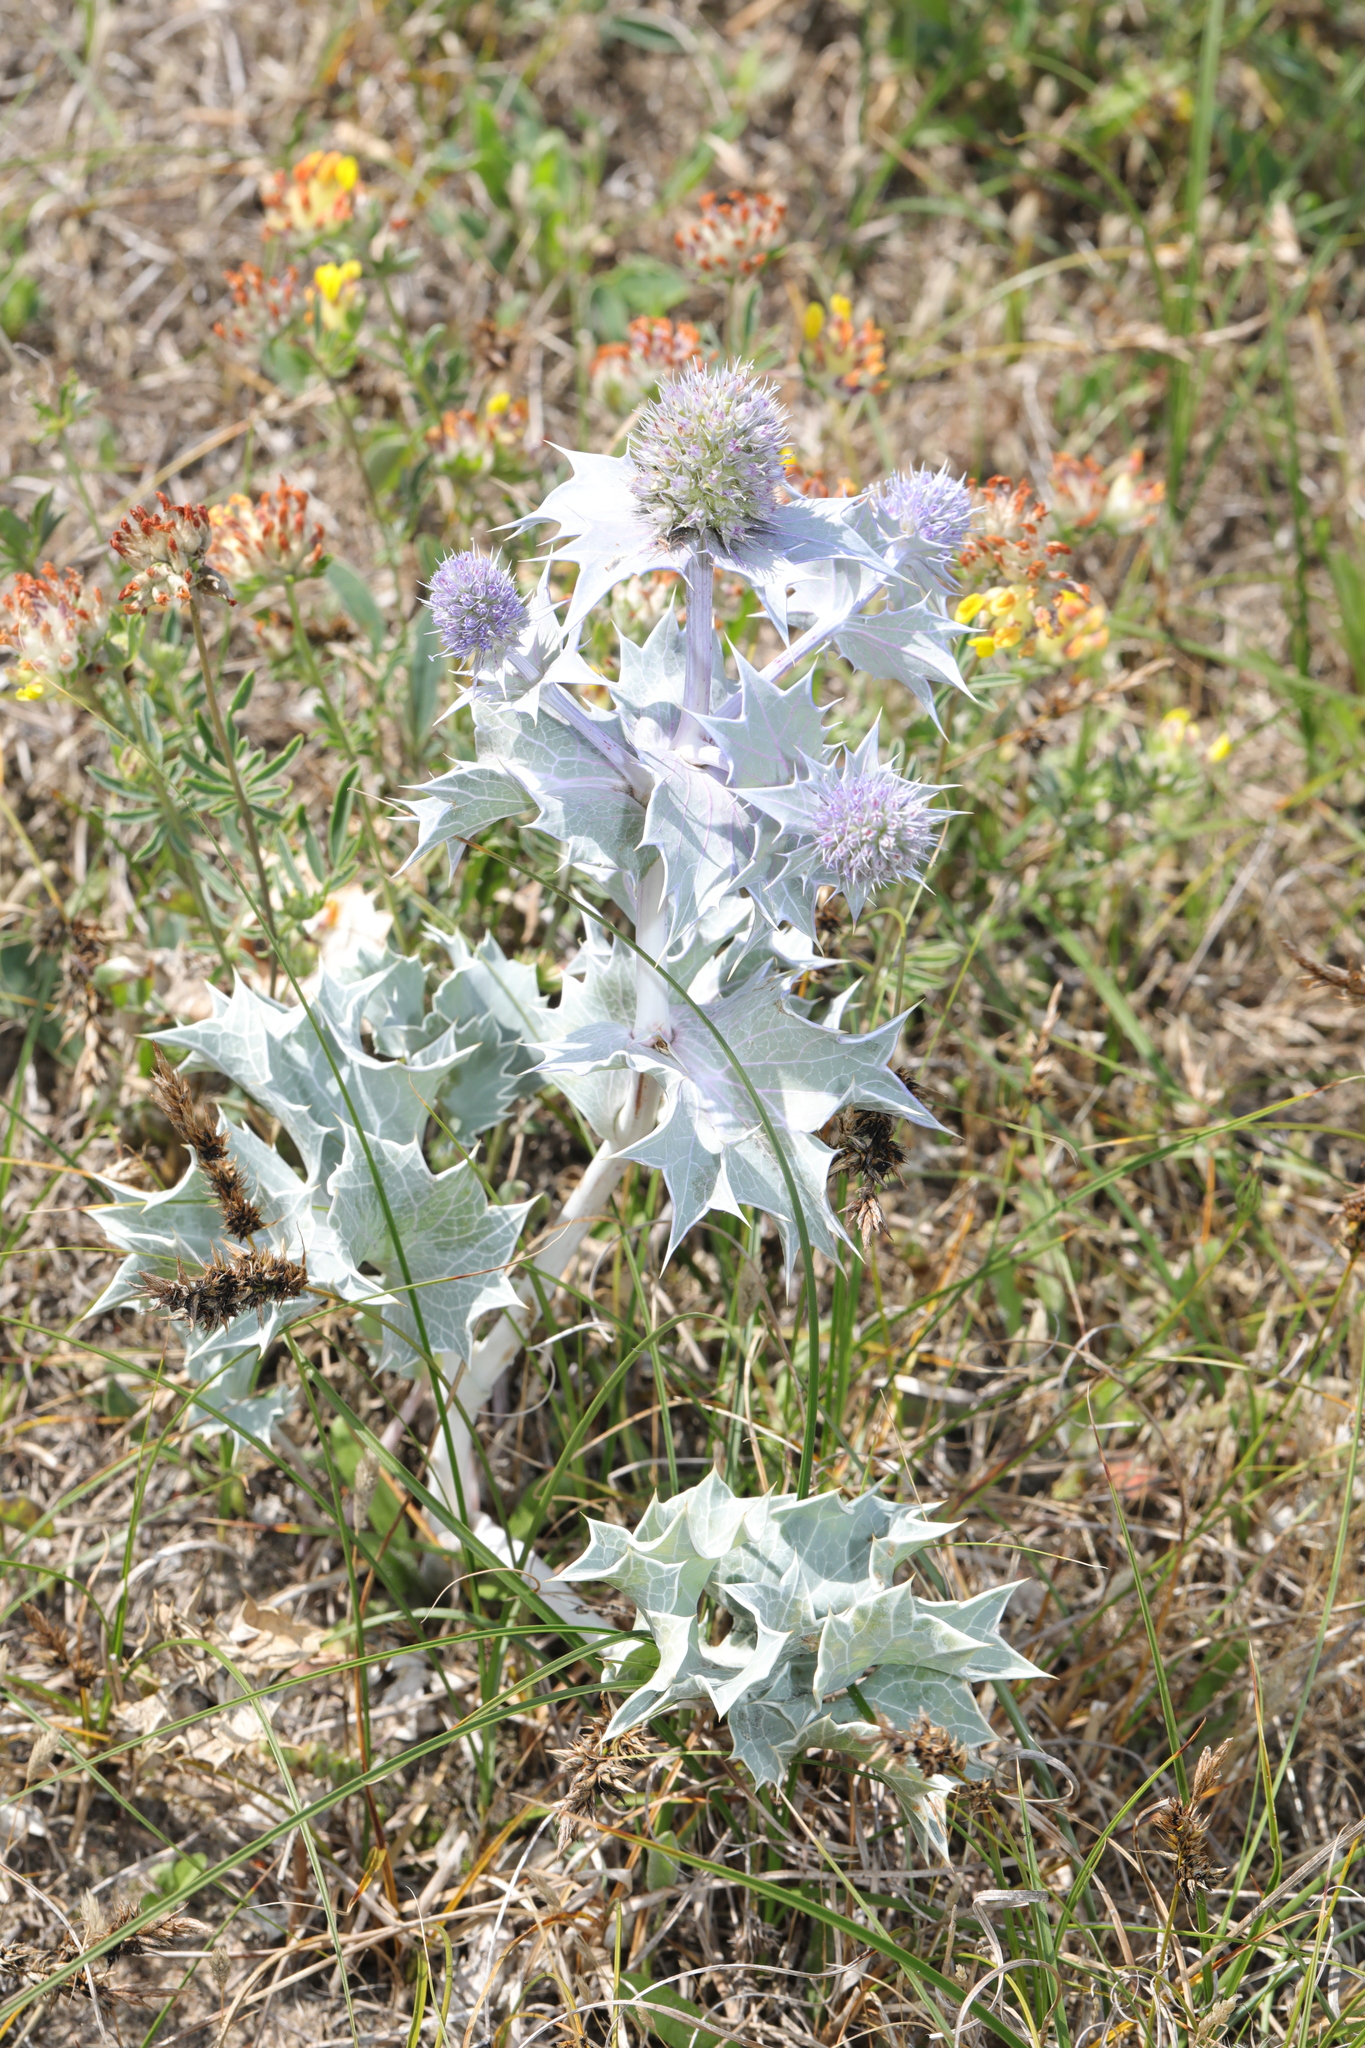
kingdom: Plantae
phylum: Tracheophyta
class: Magnoliopsida
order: Apiales
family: Apiaceae
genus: Eryngium
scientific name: Eryngium maritimum
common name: Sea-holly
